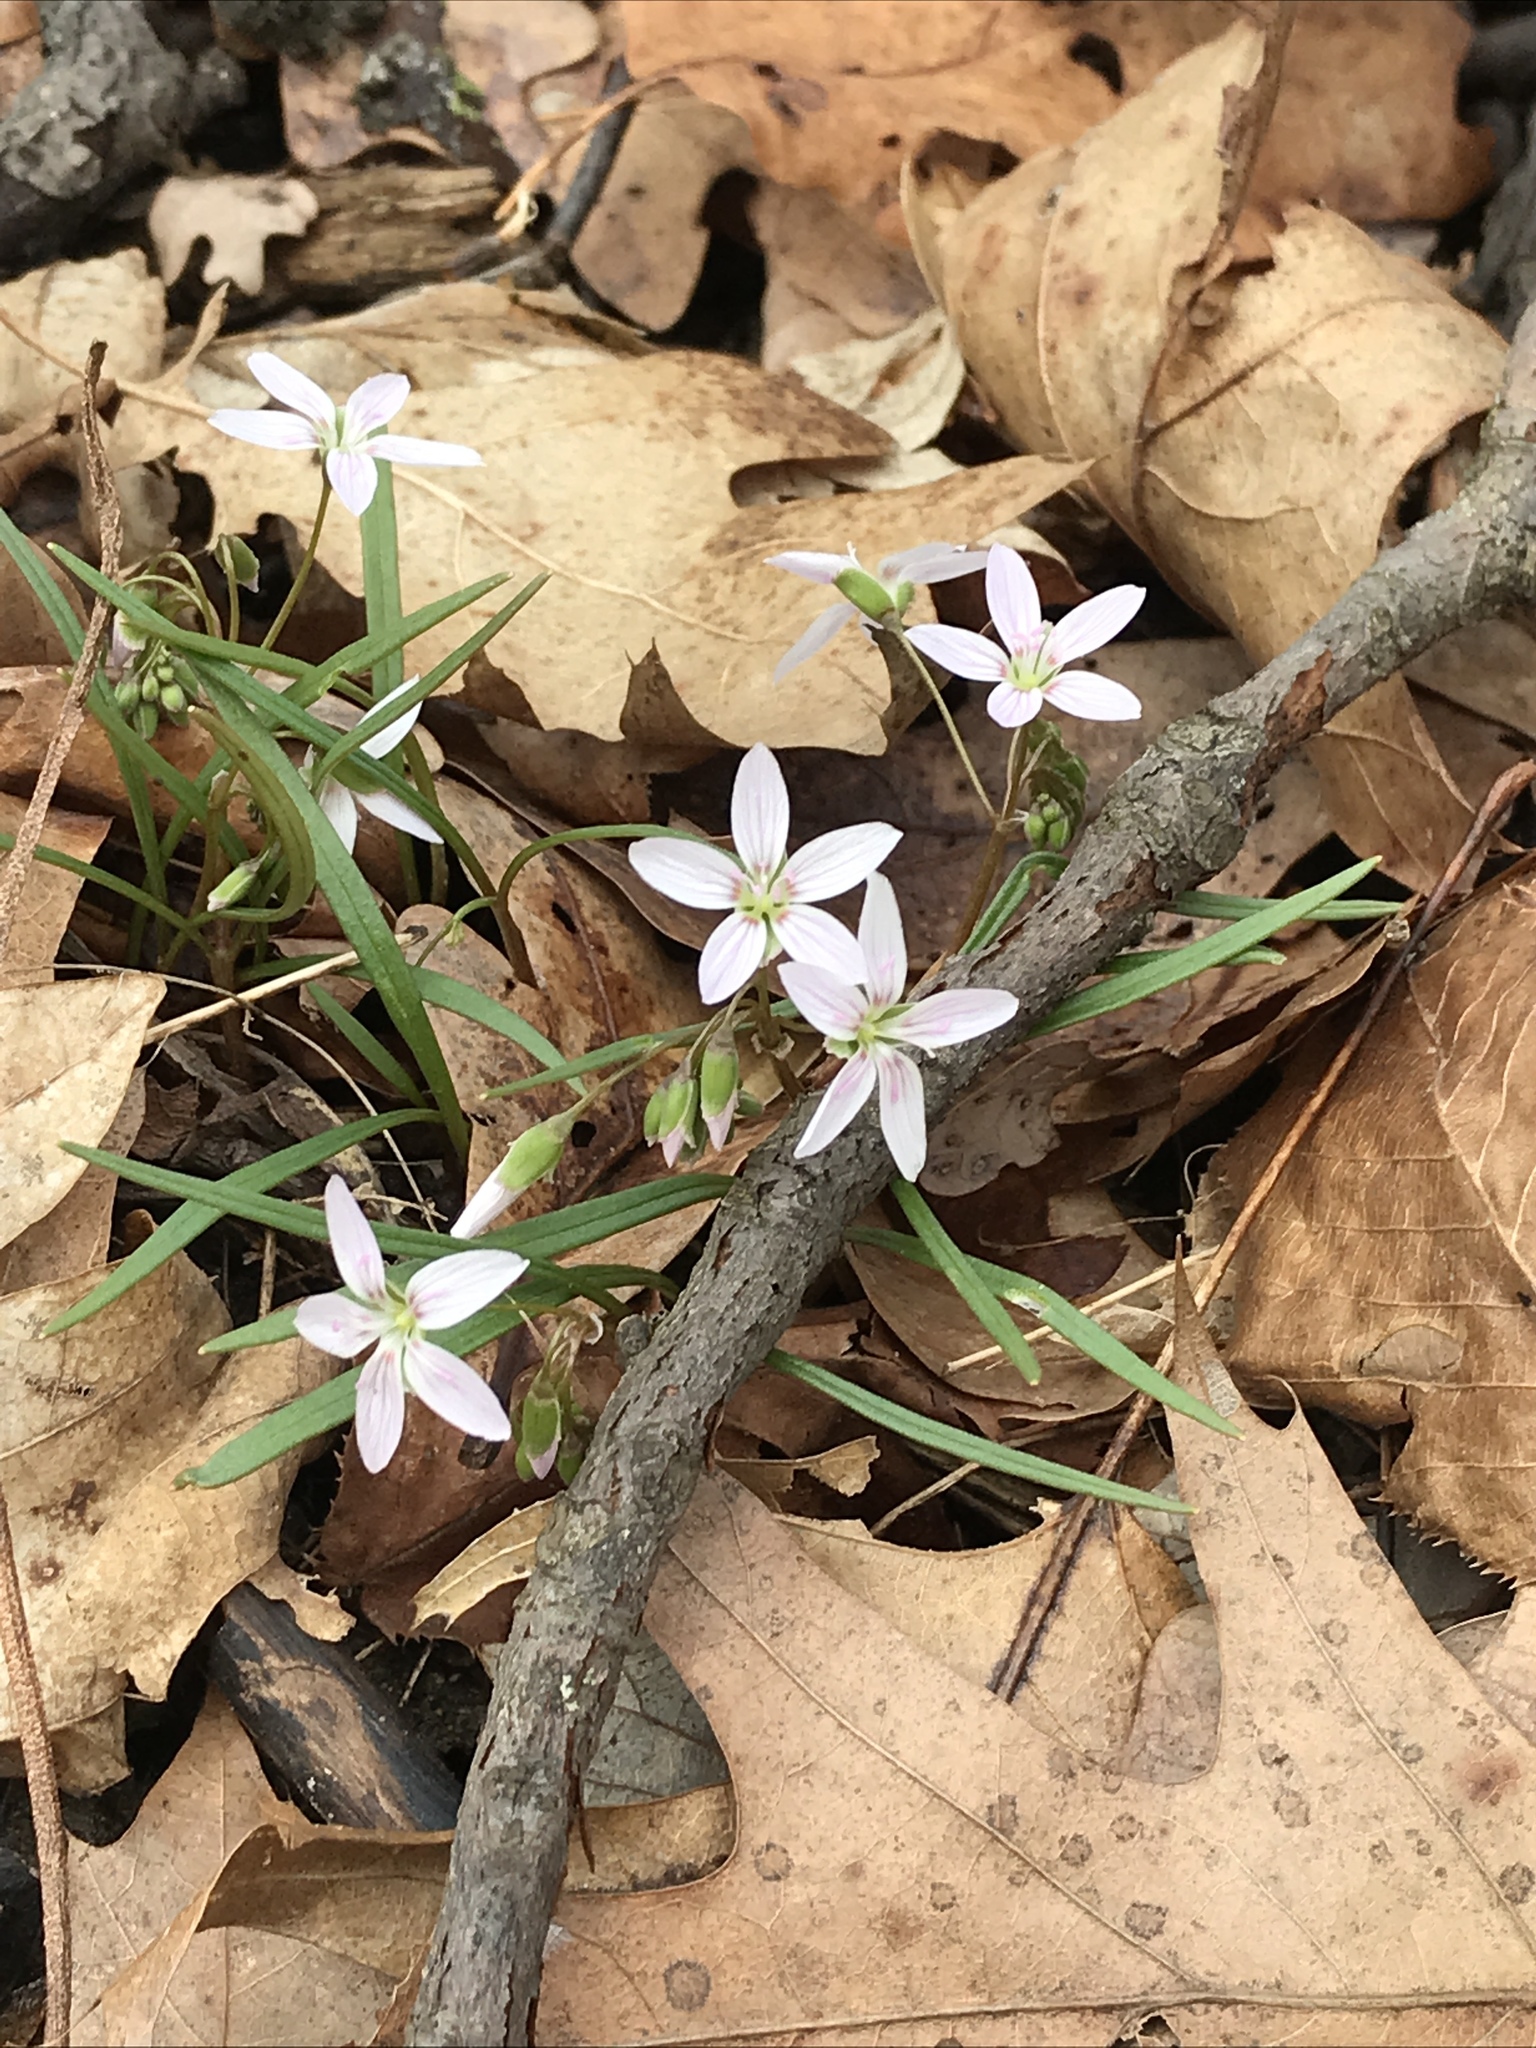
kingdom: Plantae
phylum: Tracheophyta
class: Magnoliopsida
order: Caryophyllales
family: Montiaceae
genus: Claytonia
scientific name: Claytonia virginica
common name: Virginia springbeauty
